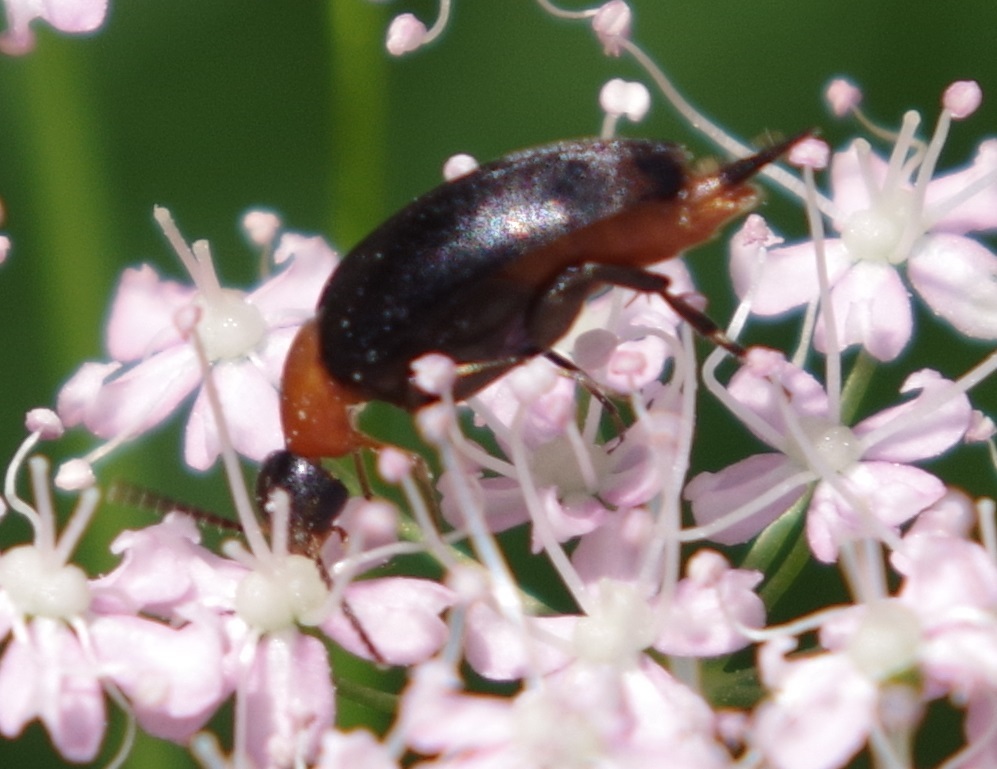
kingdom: Animalia
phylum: Arthropoda
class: Insecta
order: Coleoptera
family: Mordellidae
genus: Mordellochroa
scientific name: Mordellochroa abdominalis
